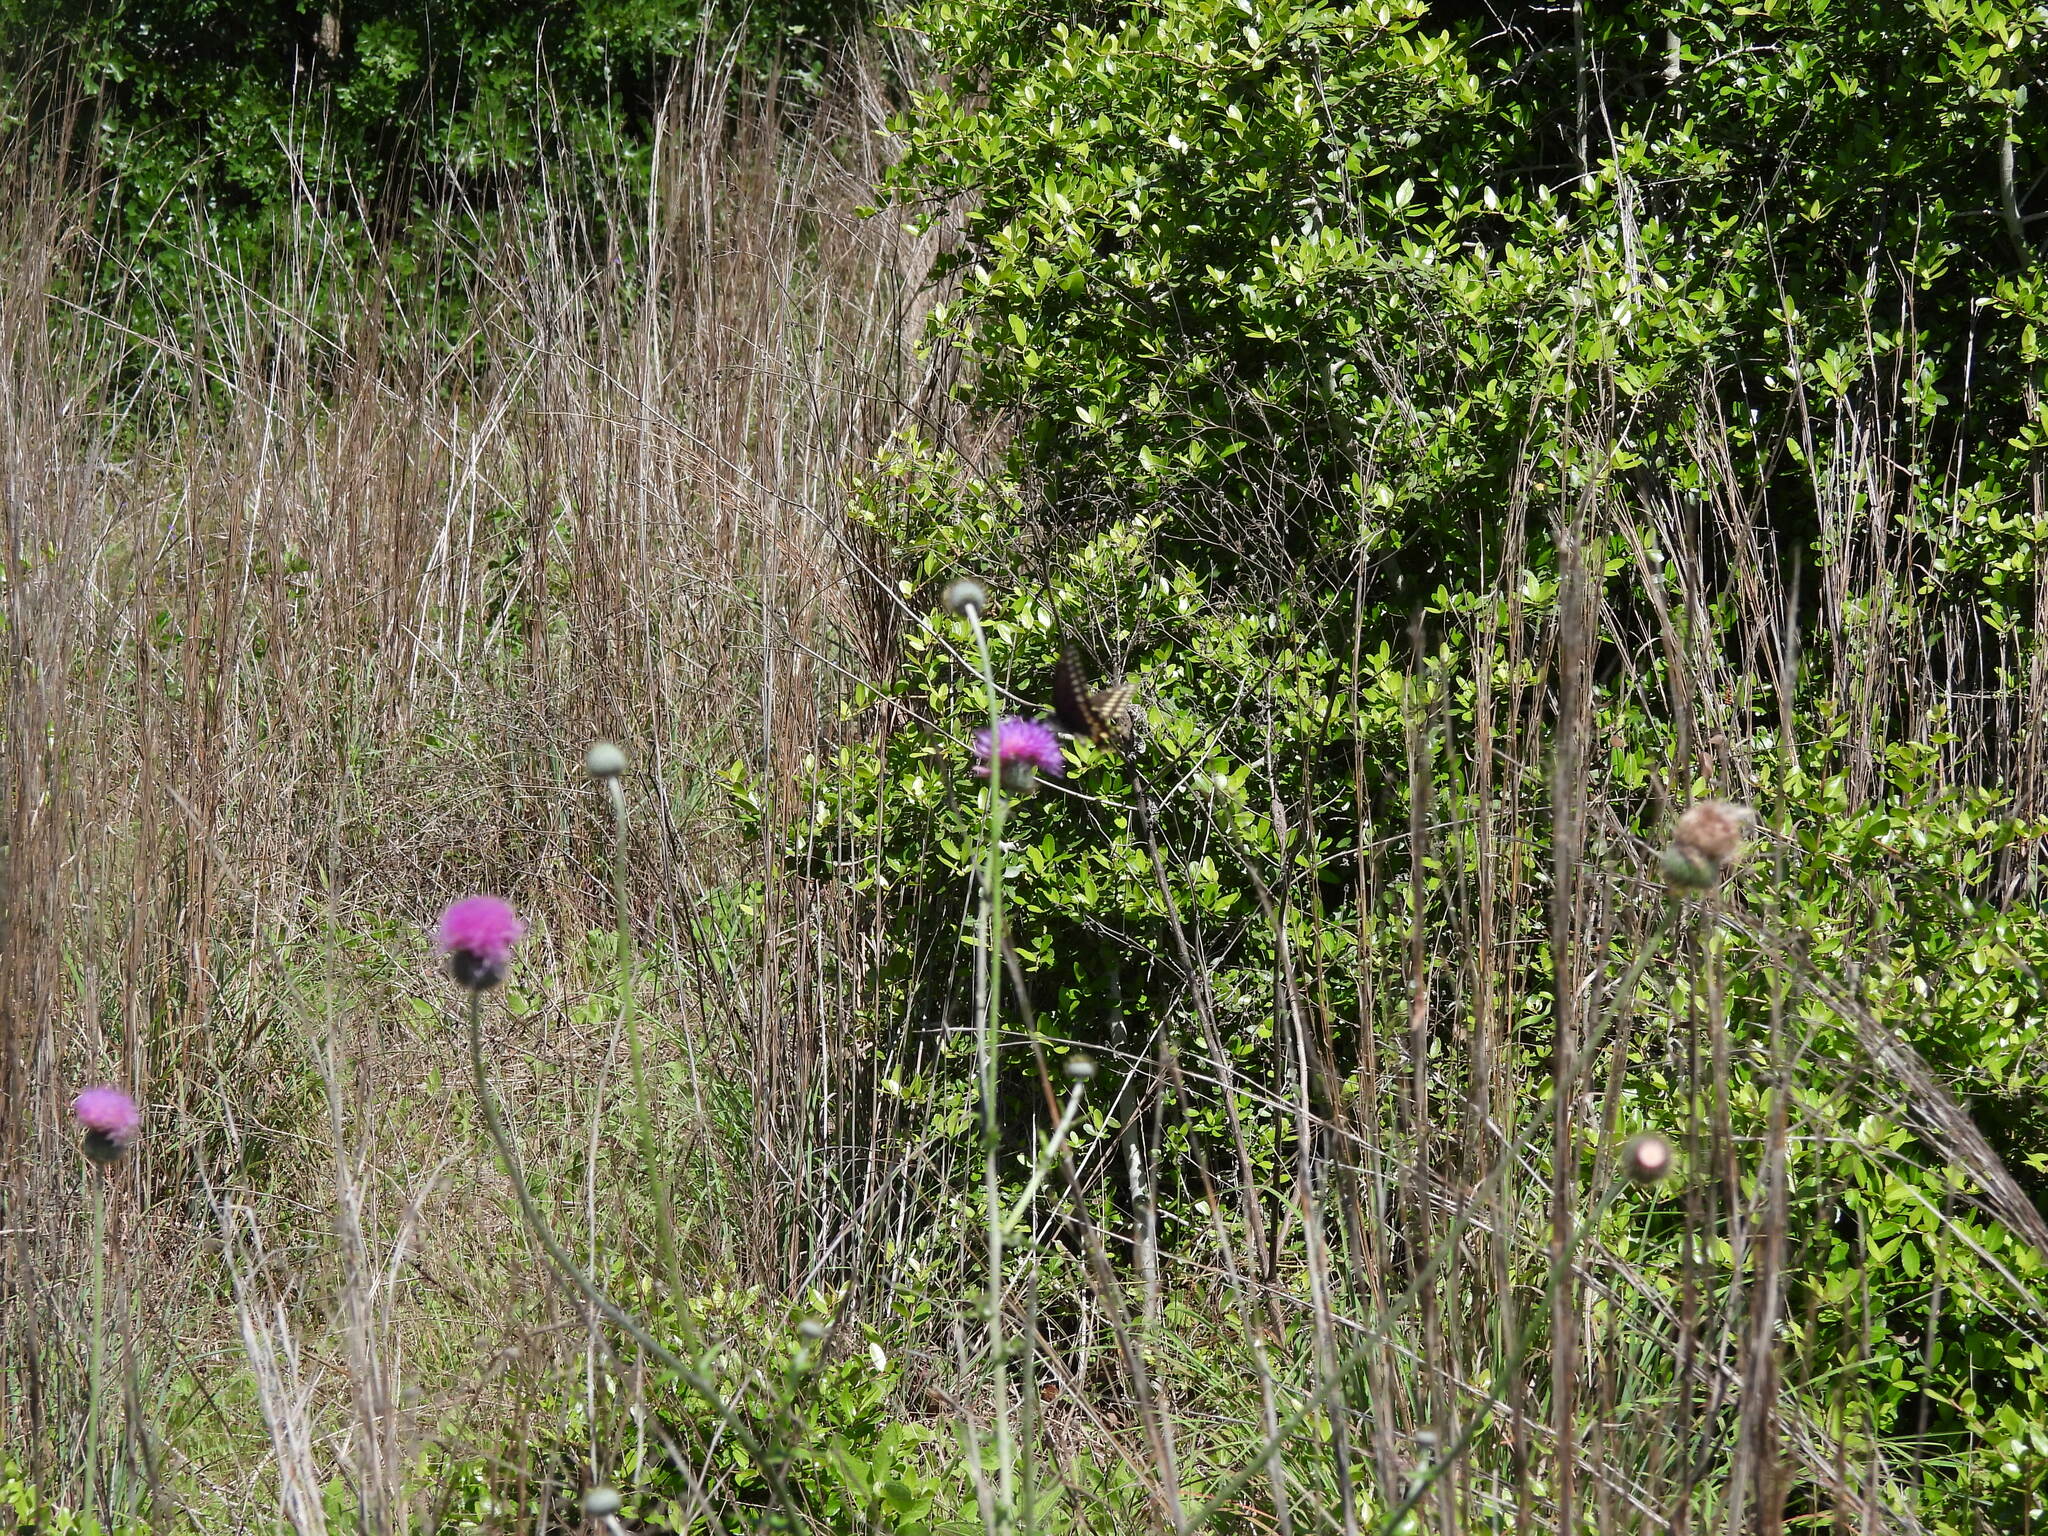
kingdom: Animalia
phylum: Arthropoda
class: Insecta
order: Lepidoptera
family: Papilionidae
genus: Battus
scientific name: Battus philenor
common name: Pipevine swallowtail
